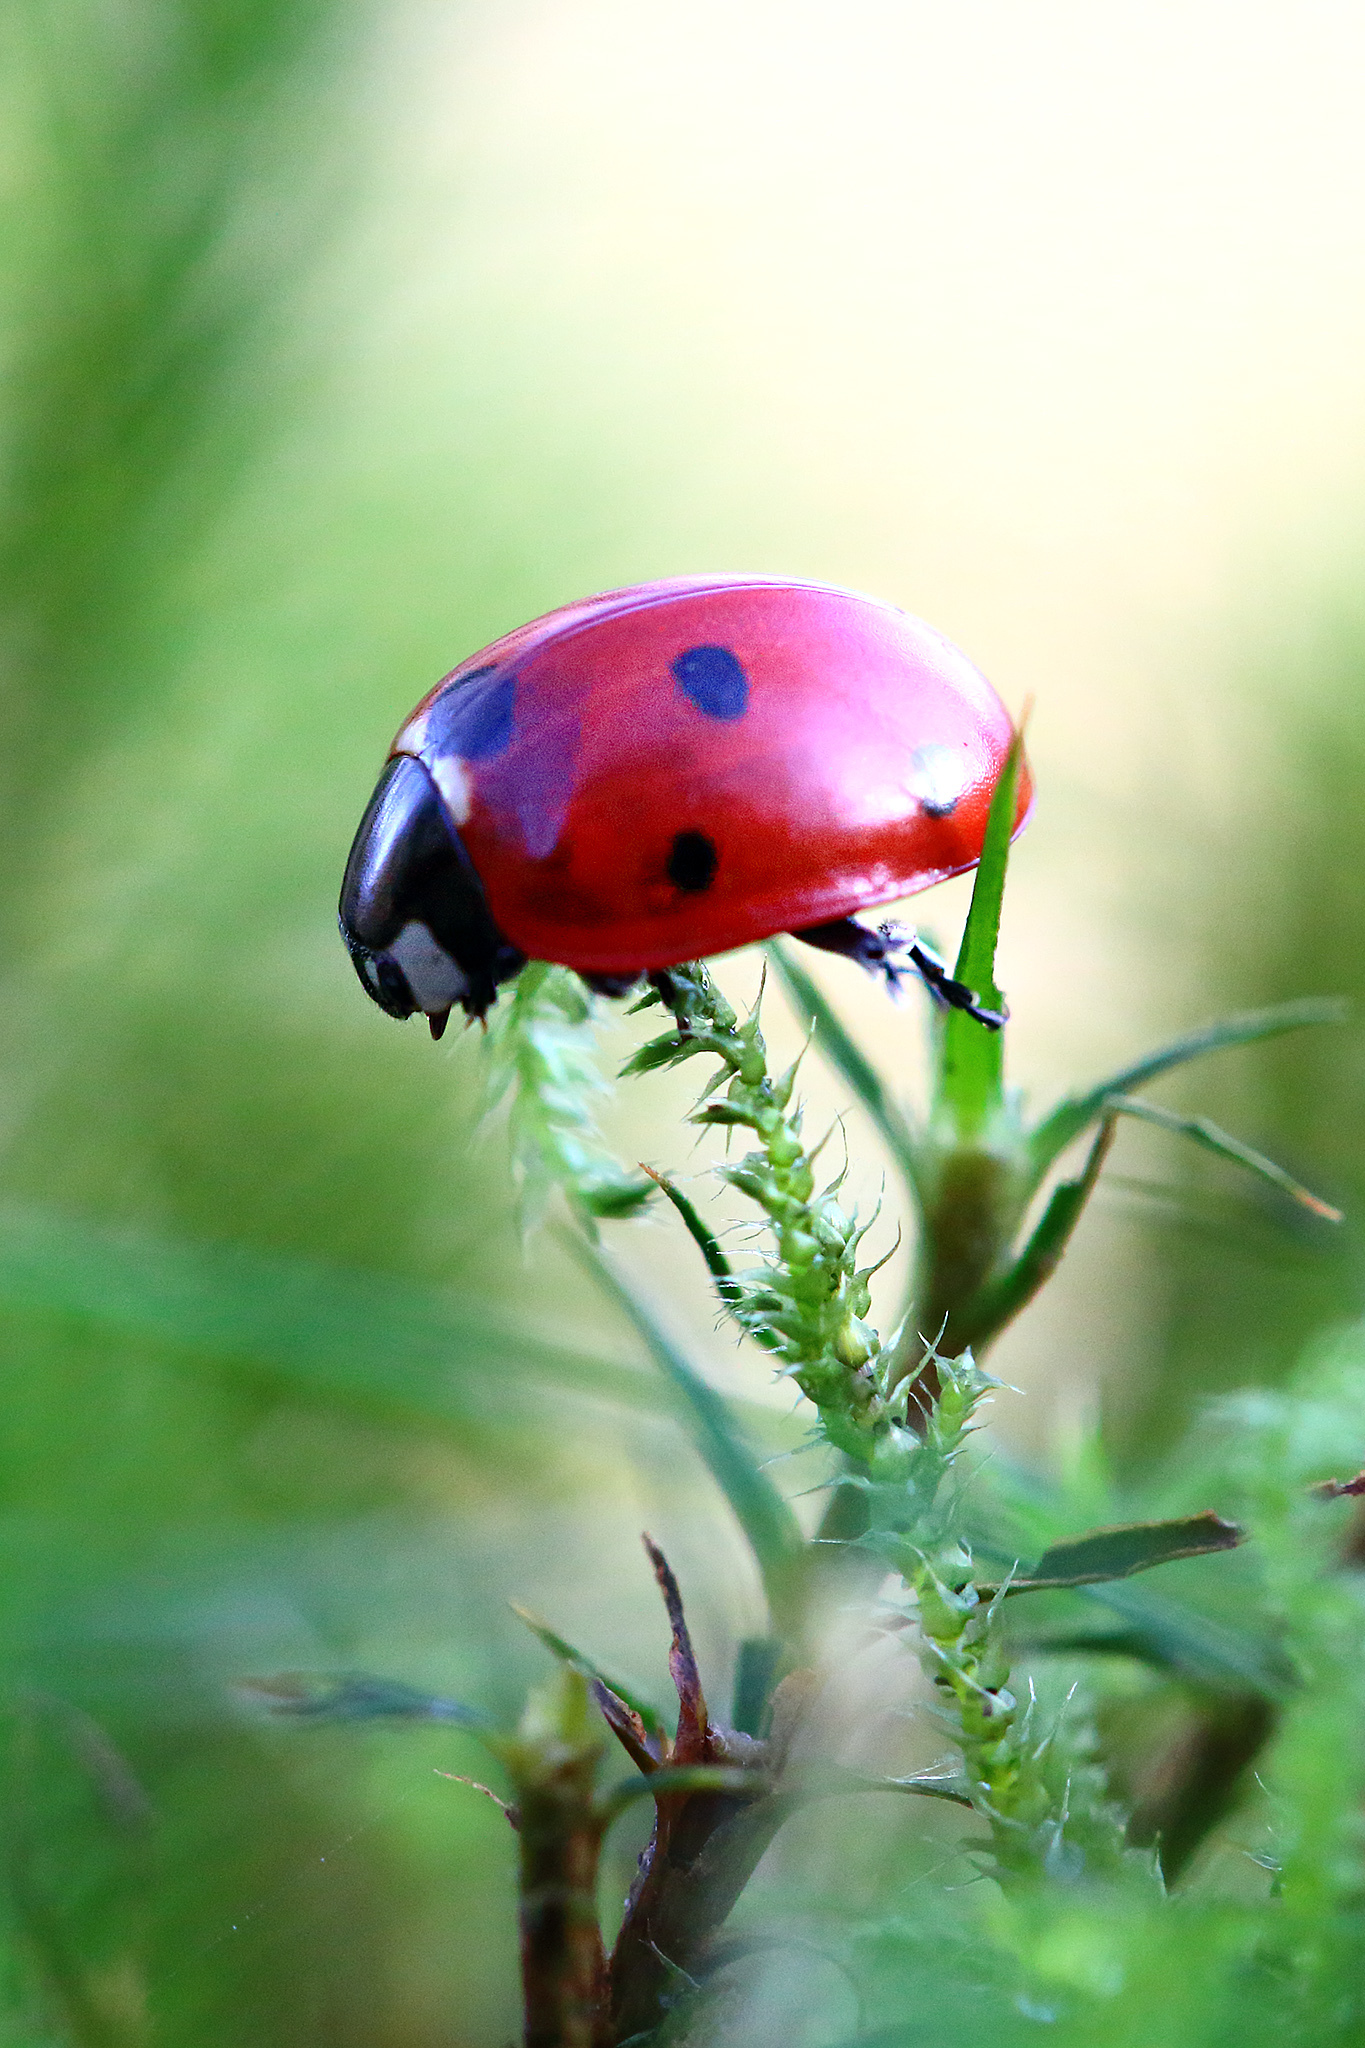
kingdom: Animalia
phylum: Arthropoda
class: Insecta
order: Coleoptera
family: Coccinellidae
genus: Coccinella
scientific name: Coccinella septempunctata
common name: Sevenspotted lady beetle
